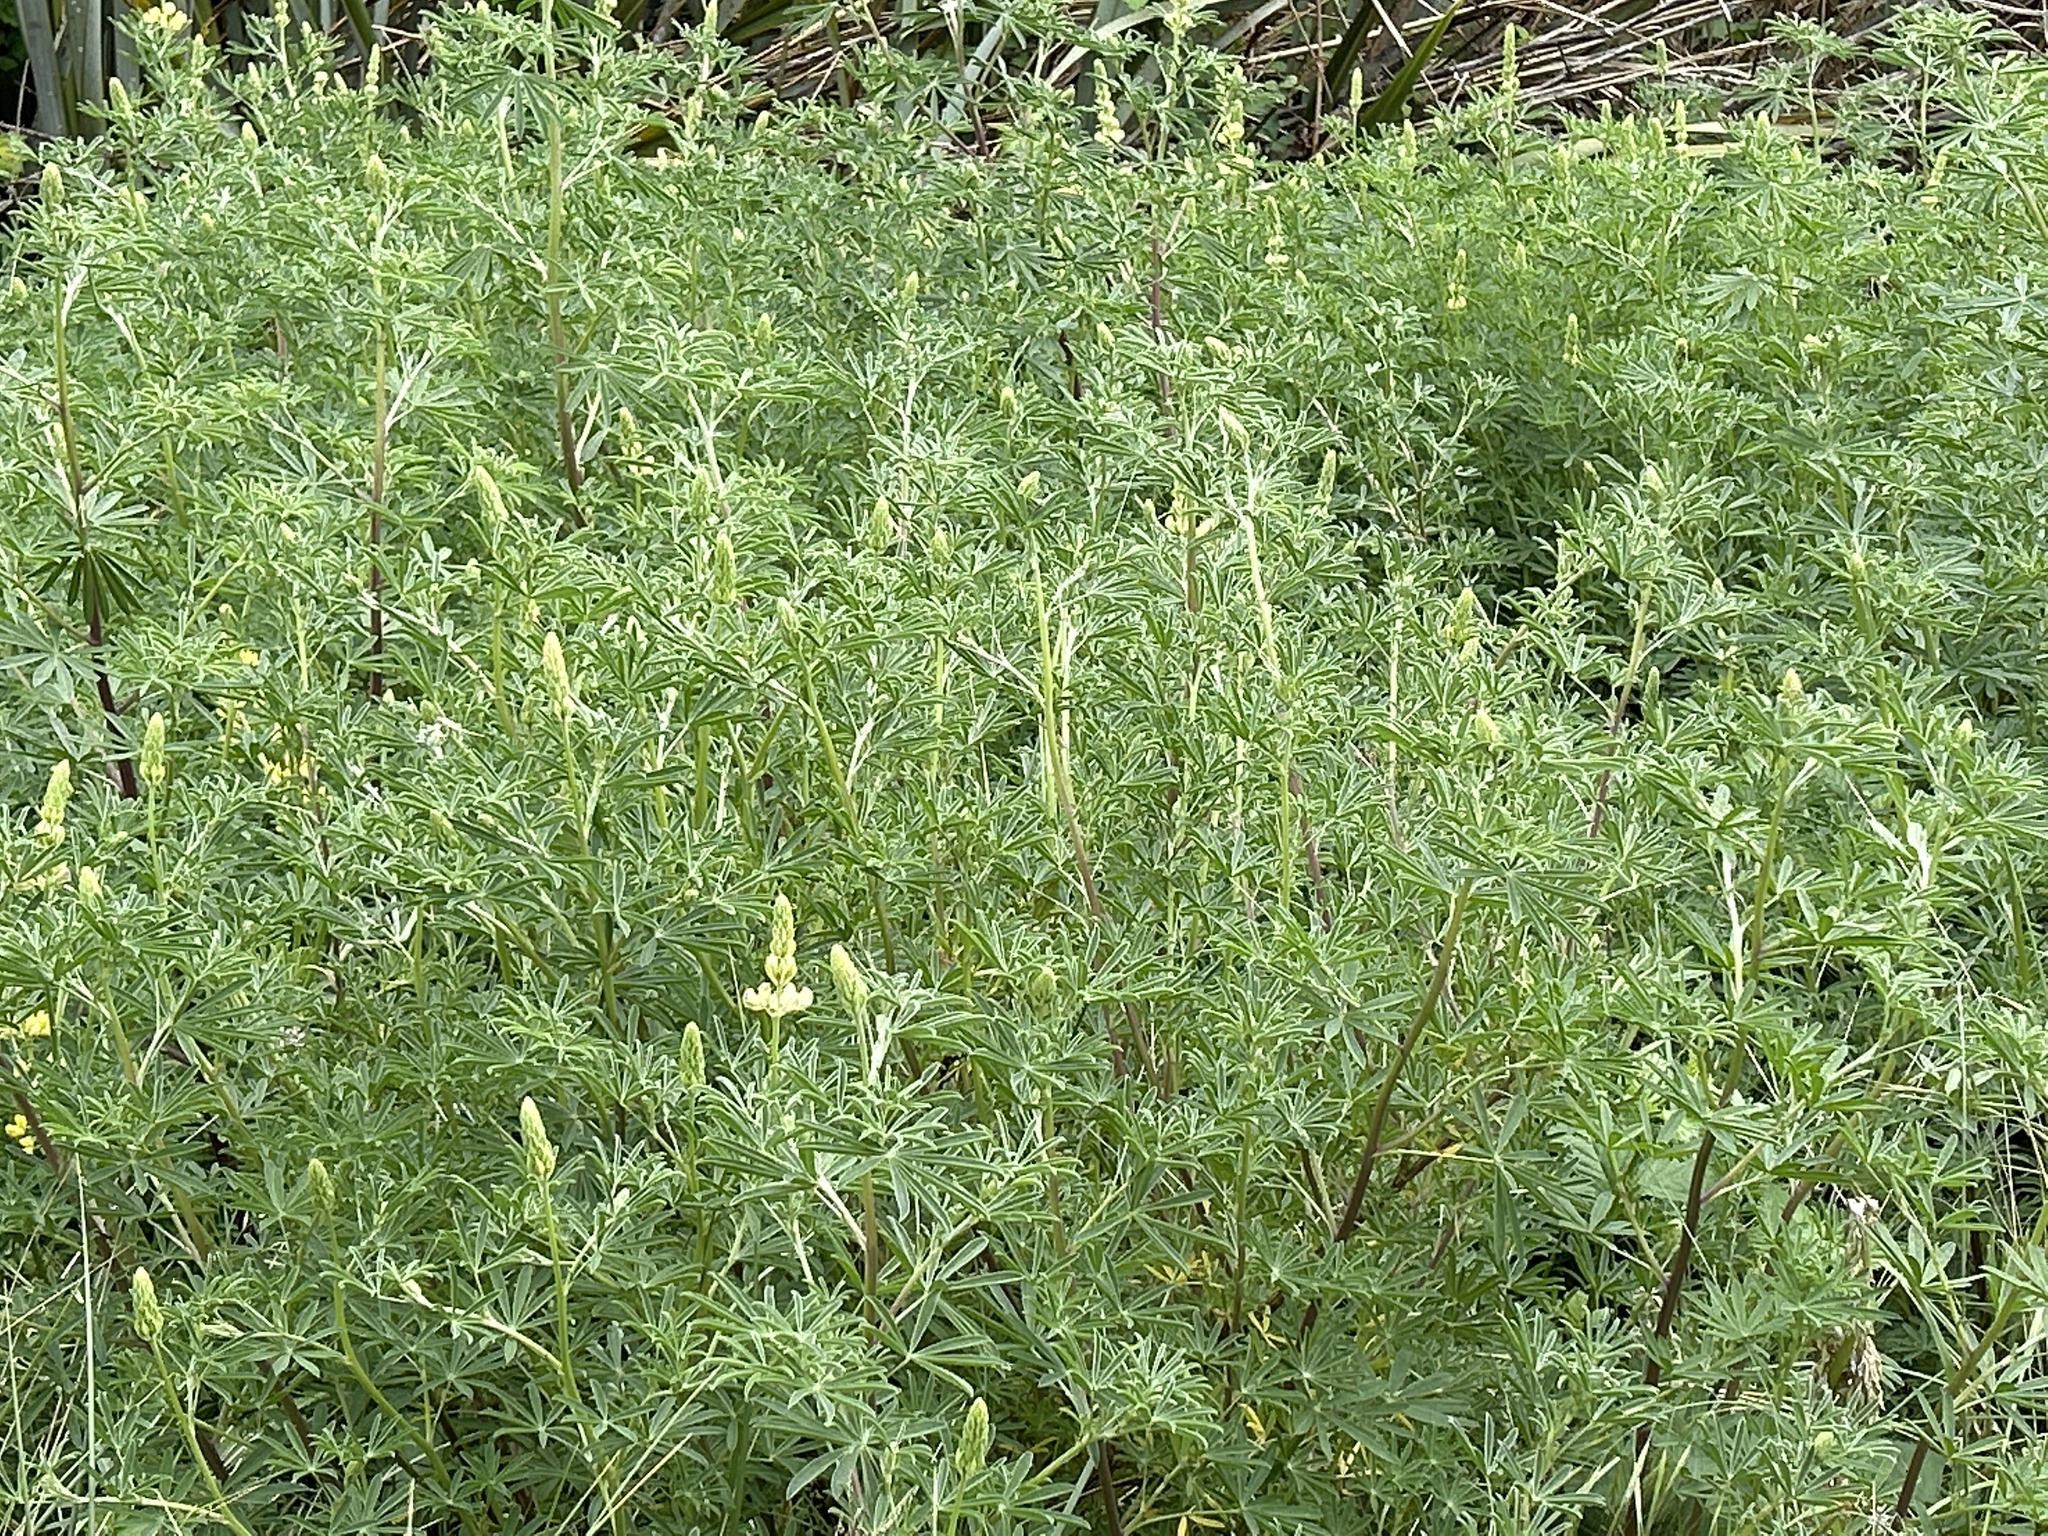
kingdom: Plantae
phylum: Tracheophyta
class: Magnoliopsida
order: Fabales
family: Fabaceae
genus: Lupinus
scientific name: Lupinus arboreus
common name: Yellow bush lupine
